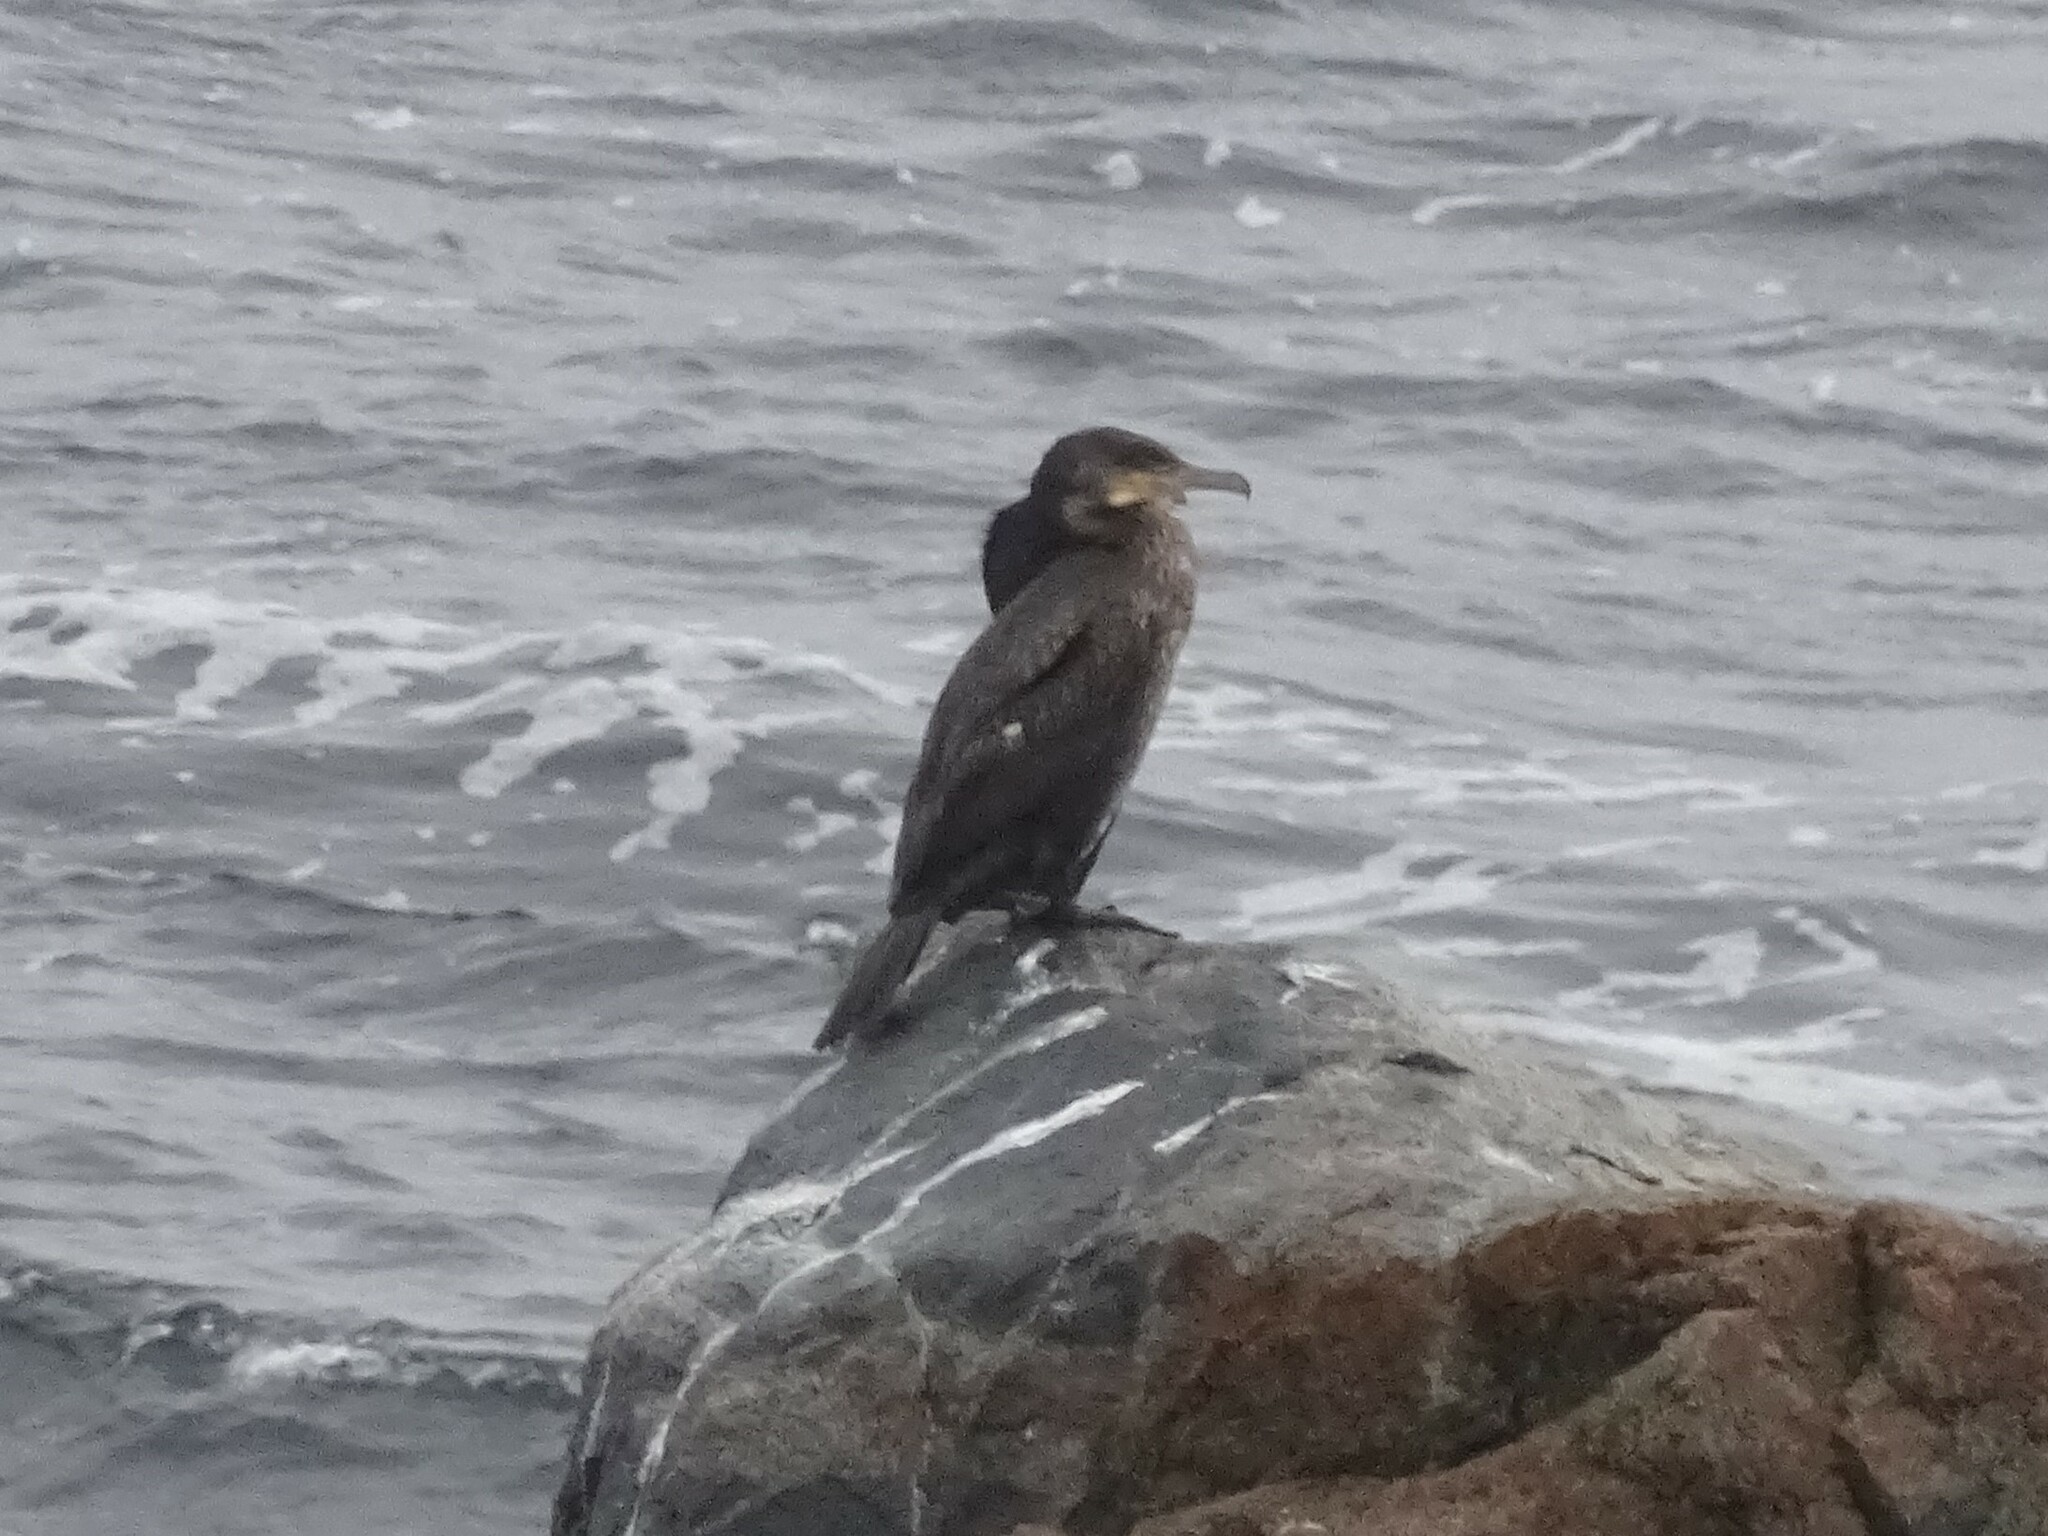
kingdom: Animalia
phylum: Chordata
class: Aves
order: Suliformes
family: Phalacrocoracidae
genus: Phalacrocorax
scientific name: Phalacrocorax carbo
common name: Great cormorant
